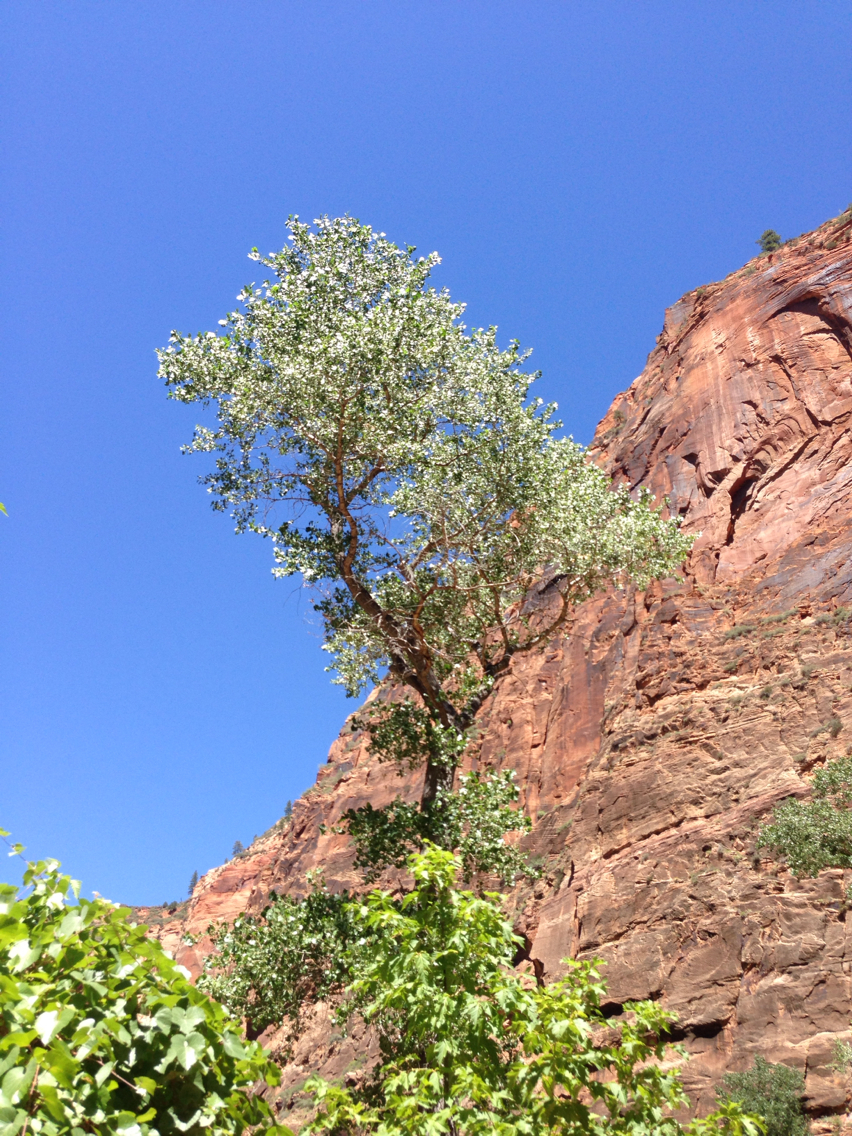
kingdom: Plantae
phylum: Tracheophyta
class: Magnoliopsida
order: Malpighiales
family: Salicaceae
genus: Populus
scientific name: Populus fremontii
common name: Fremont's cottonwood
